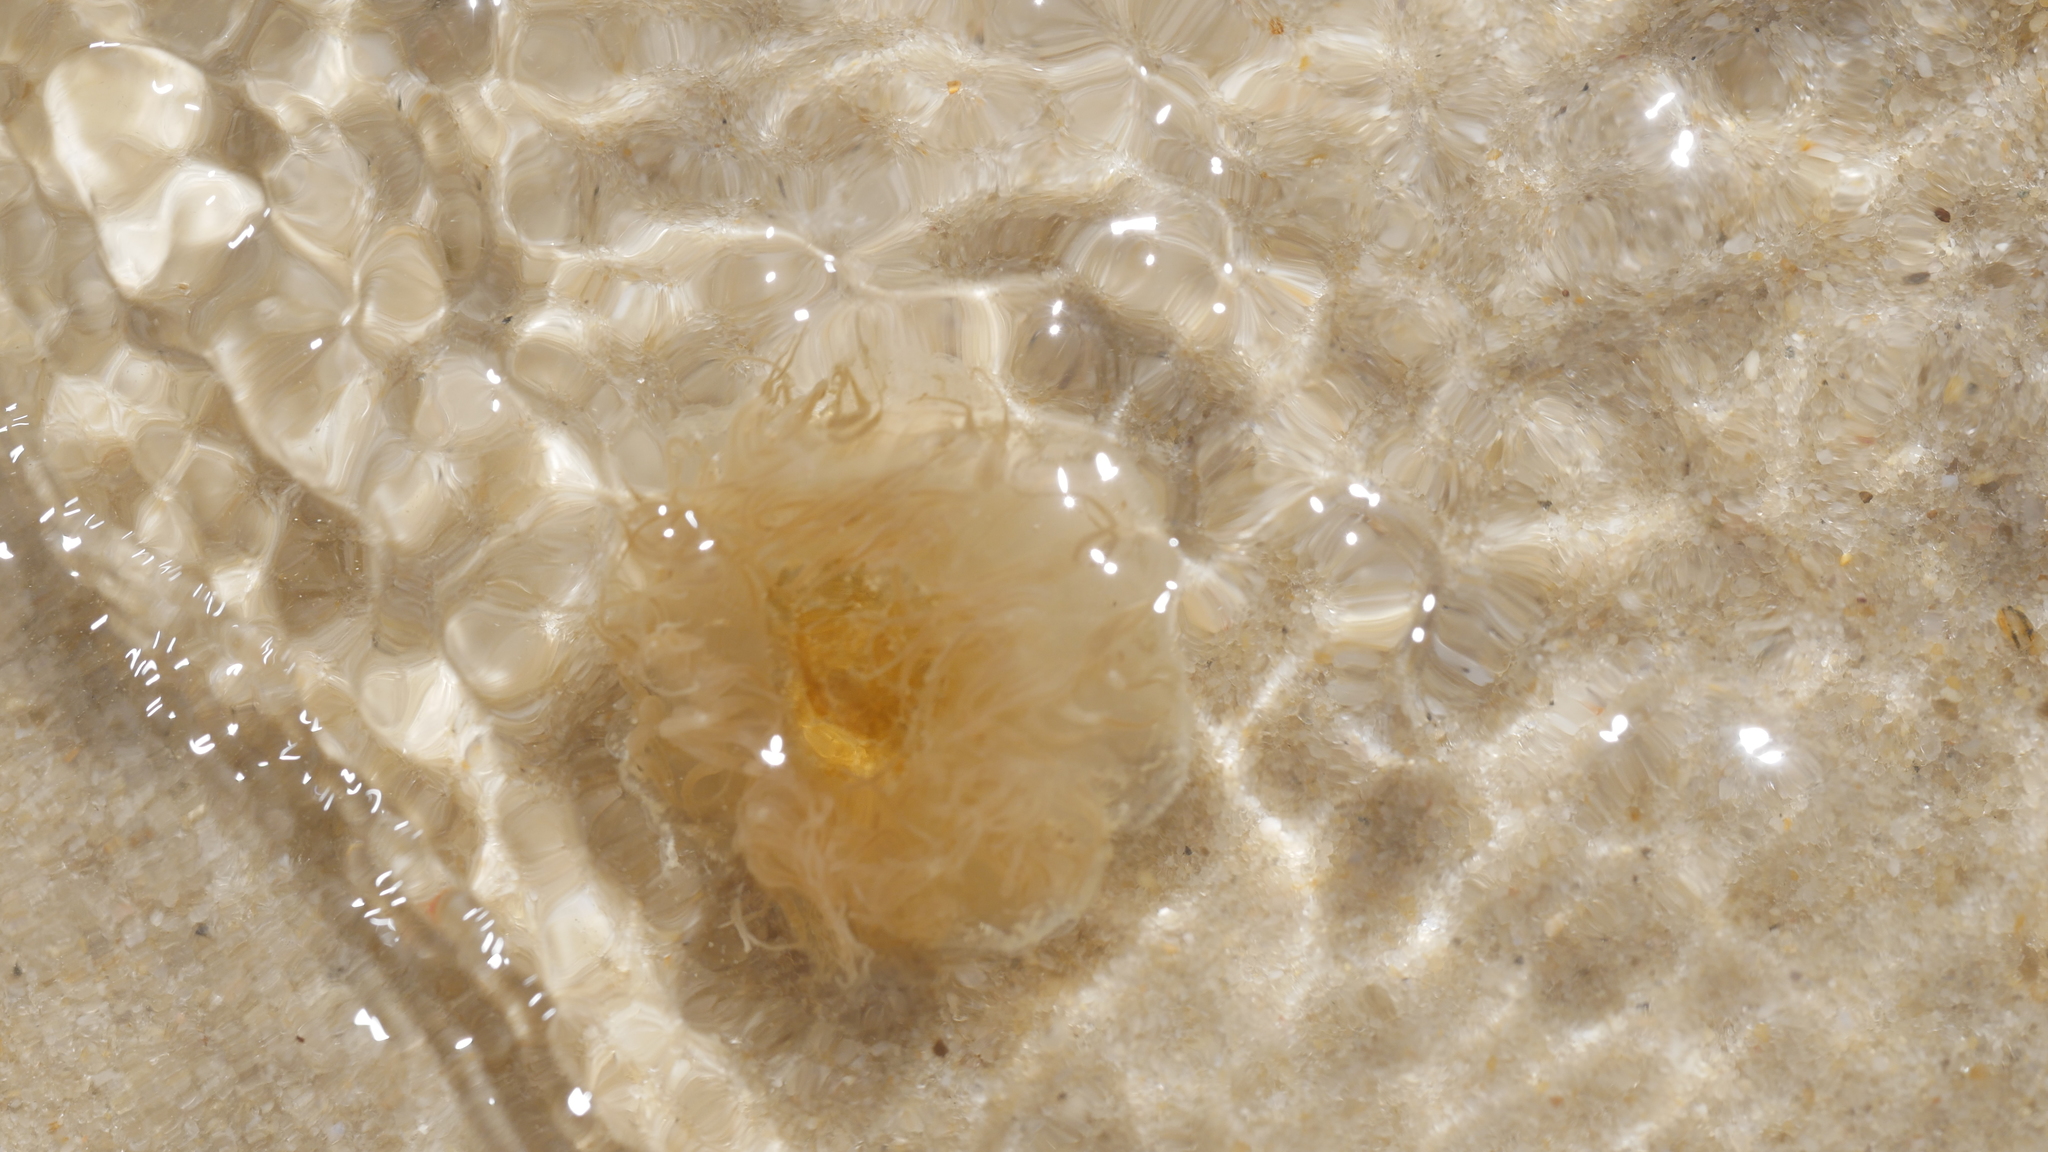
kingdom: Animalia
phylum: Cnidaria
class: Scyphozoa
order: Semaeostomeae
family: Cyaneidae
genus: Cyanea
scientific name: Cyanea fulva
